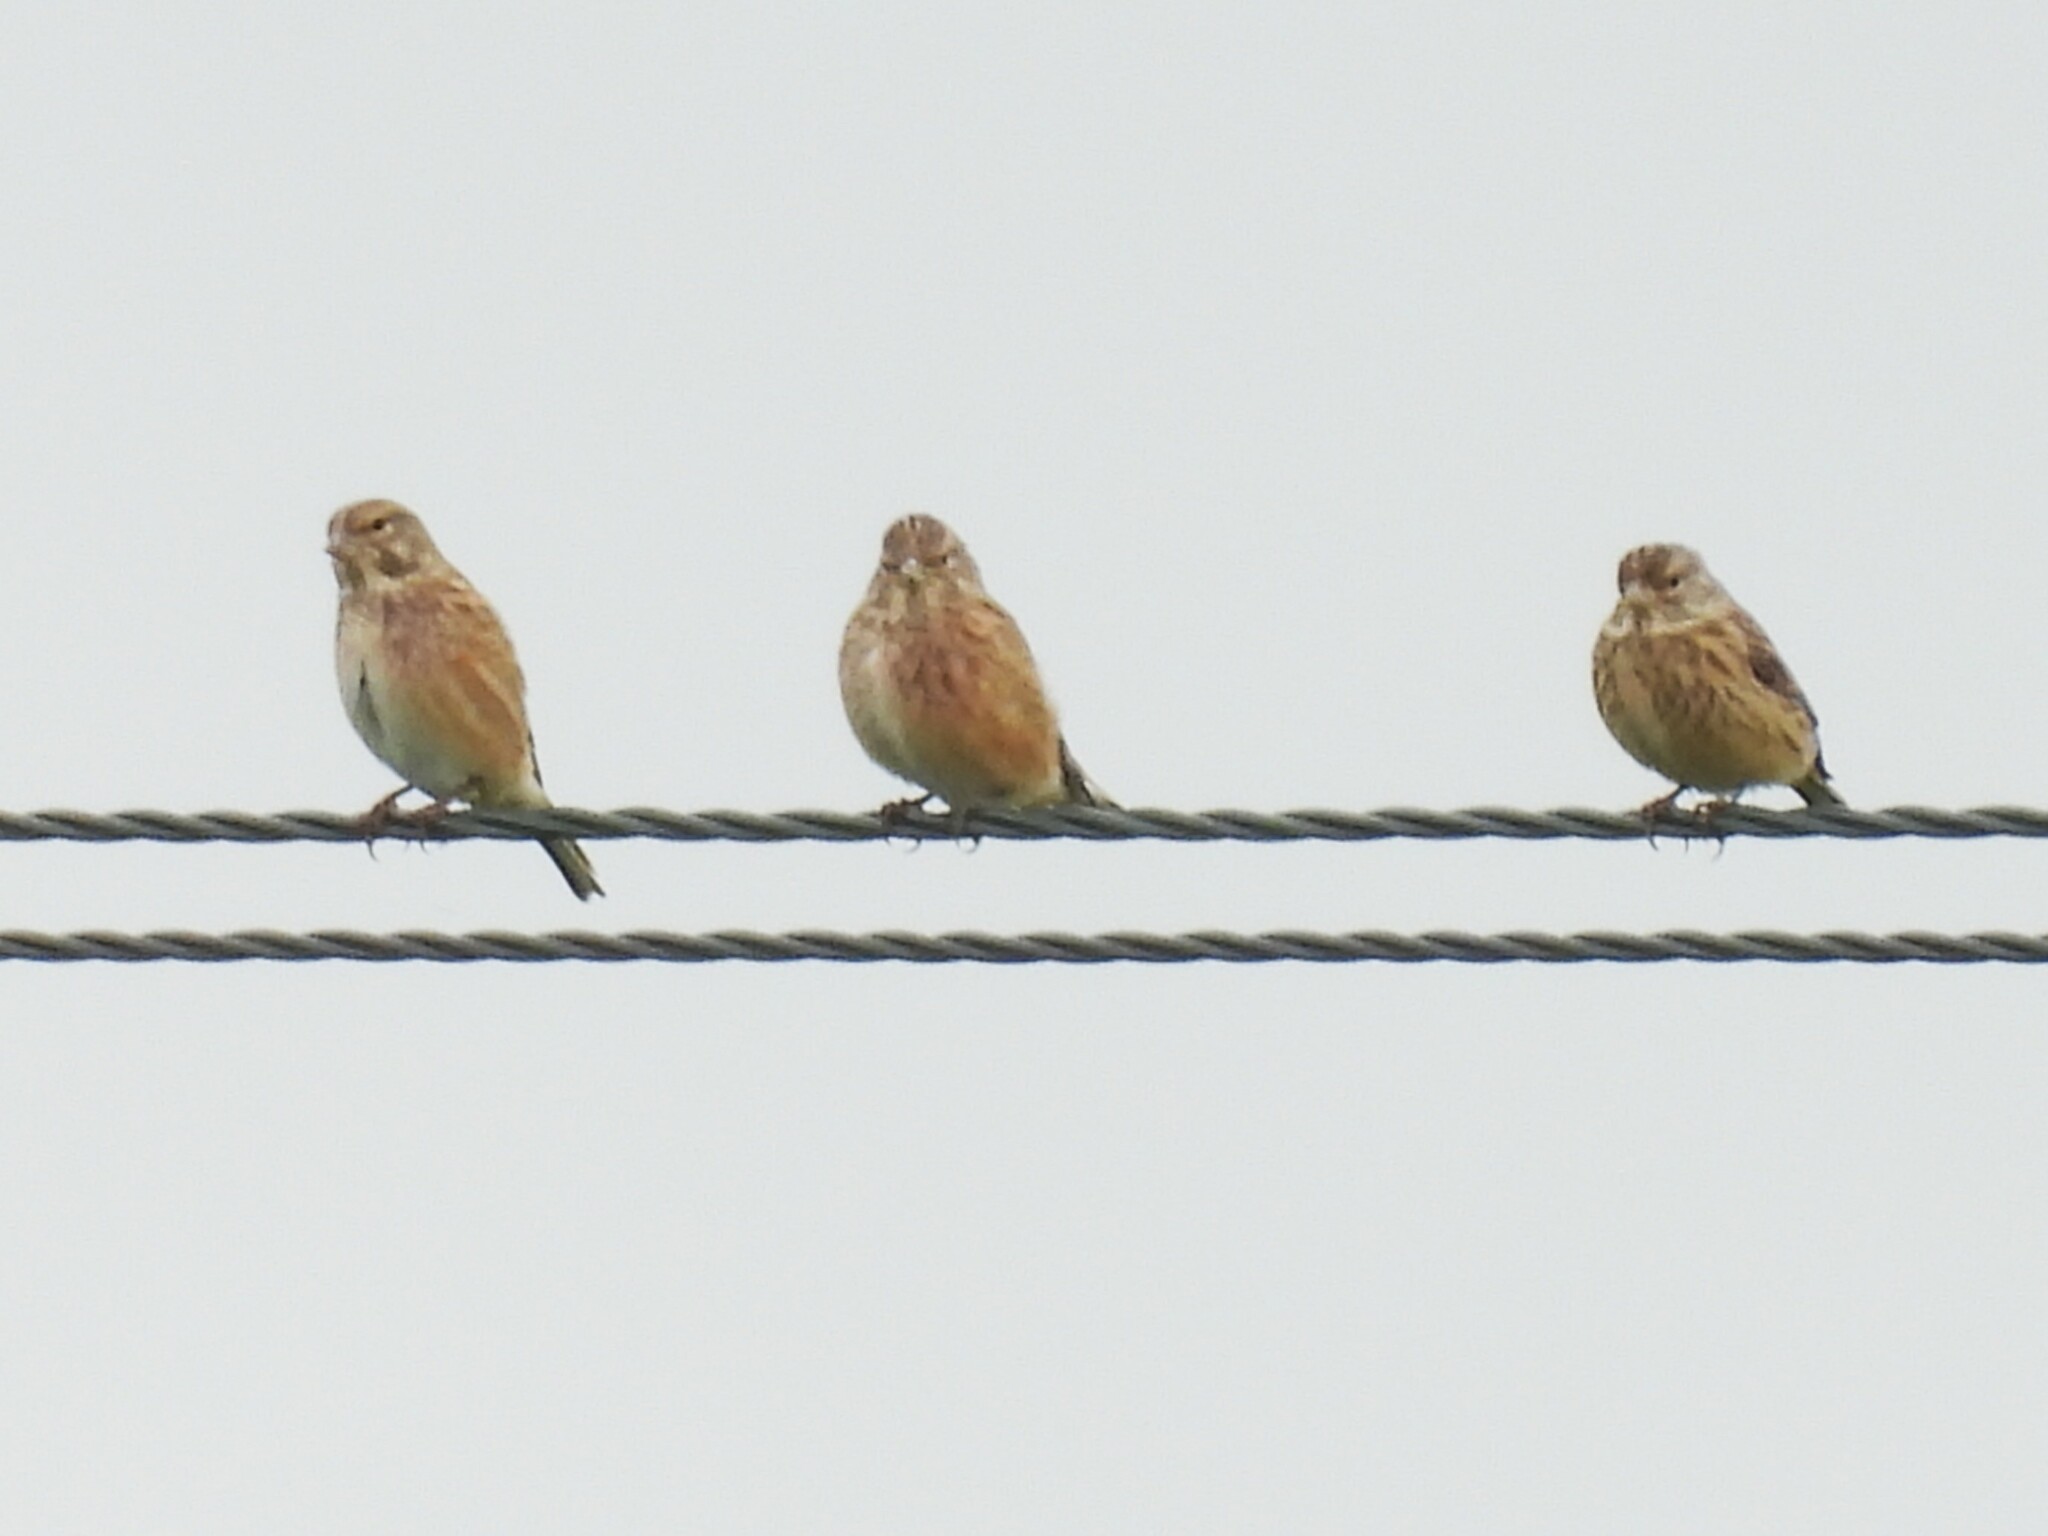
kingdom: Animalia
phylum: Chordata
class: Aves
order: Passeriformes
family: Fringillidae
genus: Linaria
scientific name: Linaria cannabina
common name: Common linnet
